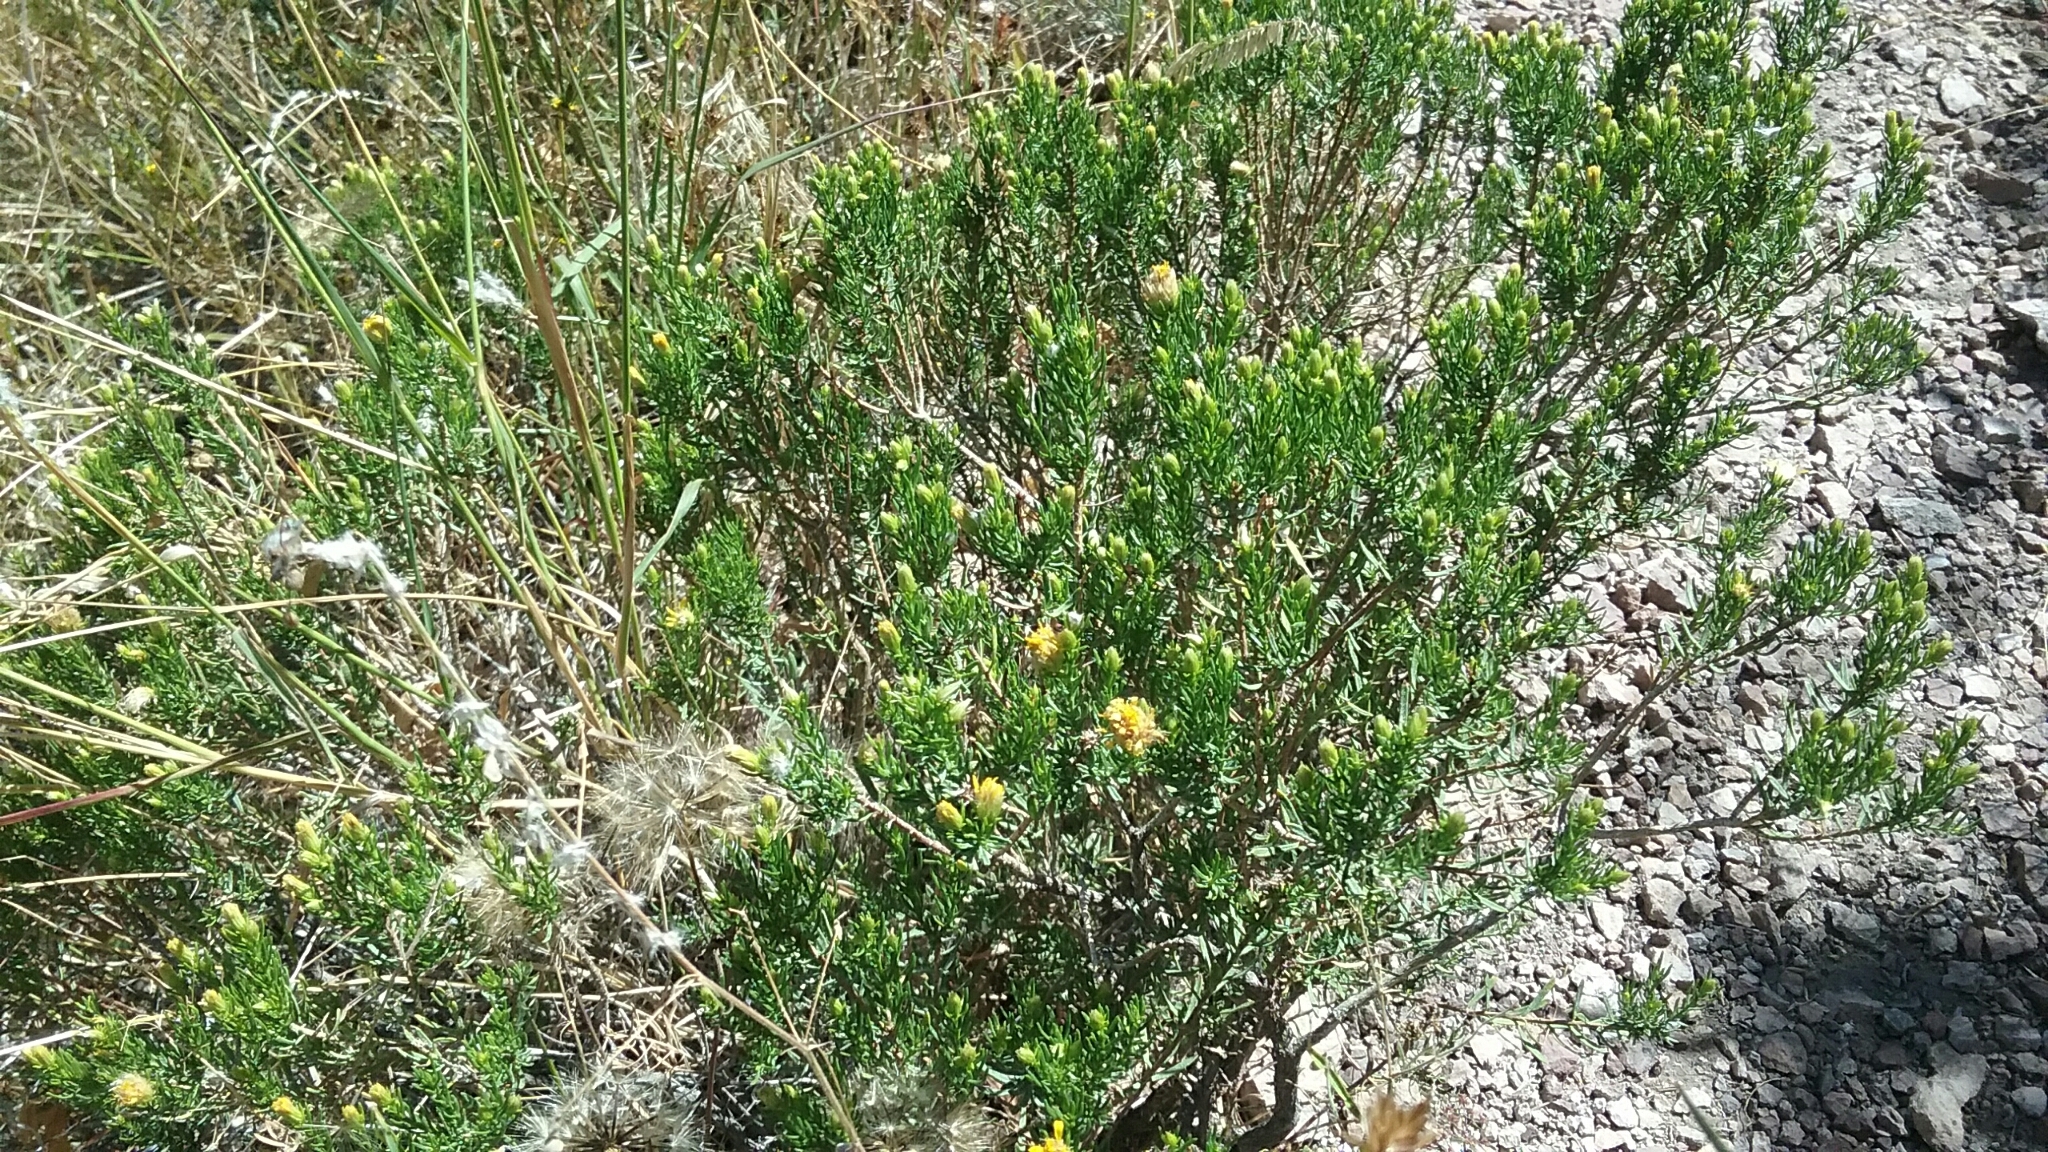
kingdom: Plantae
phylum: Tracheophyta
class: Magnoliopsida
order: Asterales
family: Asteraceae
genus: Ericameria
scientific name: Ericameria laricifolia
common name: Turpentine-bush
